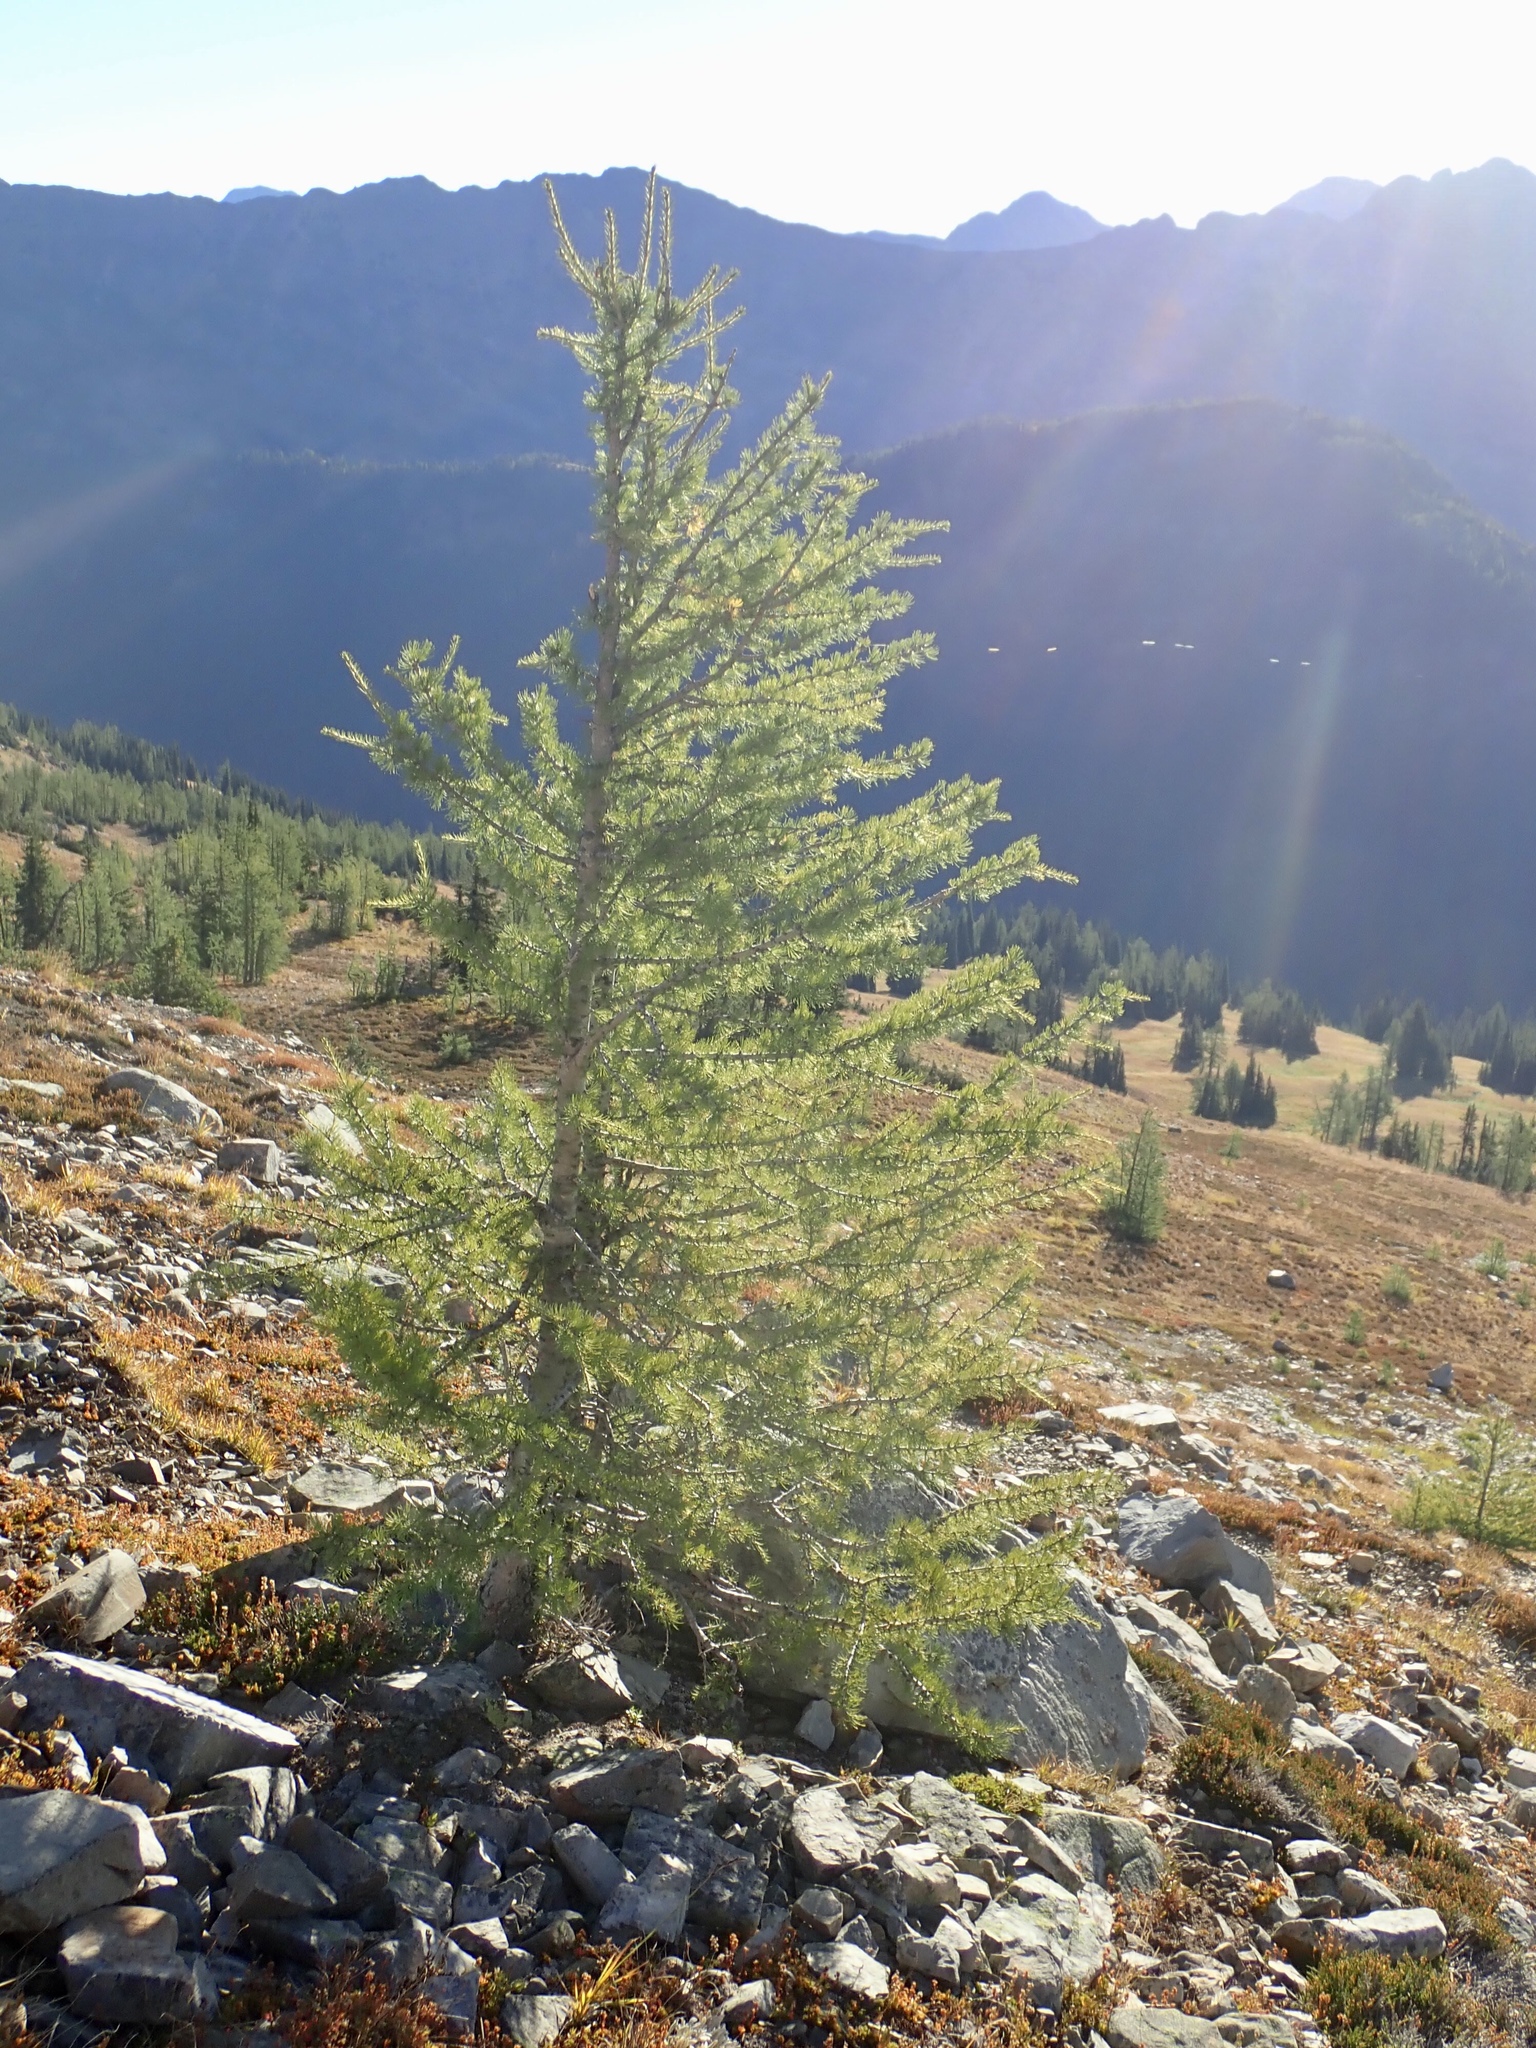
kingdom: Plantae
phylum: Tracheophyta
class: Pinopsida
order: Pinales
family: Pinaceae
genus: Larix
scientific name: Larix lyallii
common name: Alpine larch
